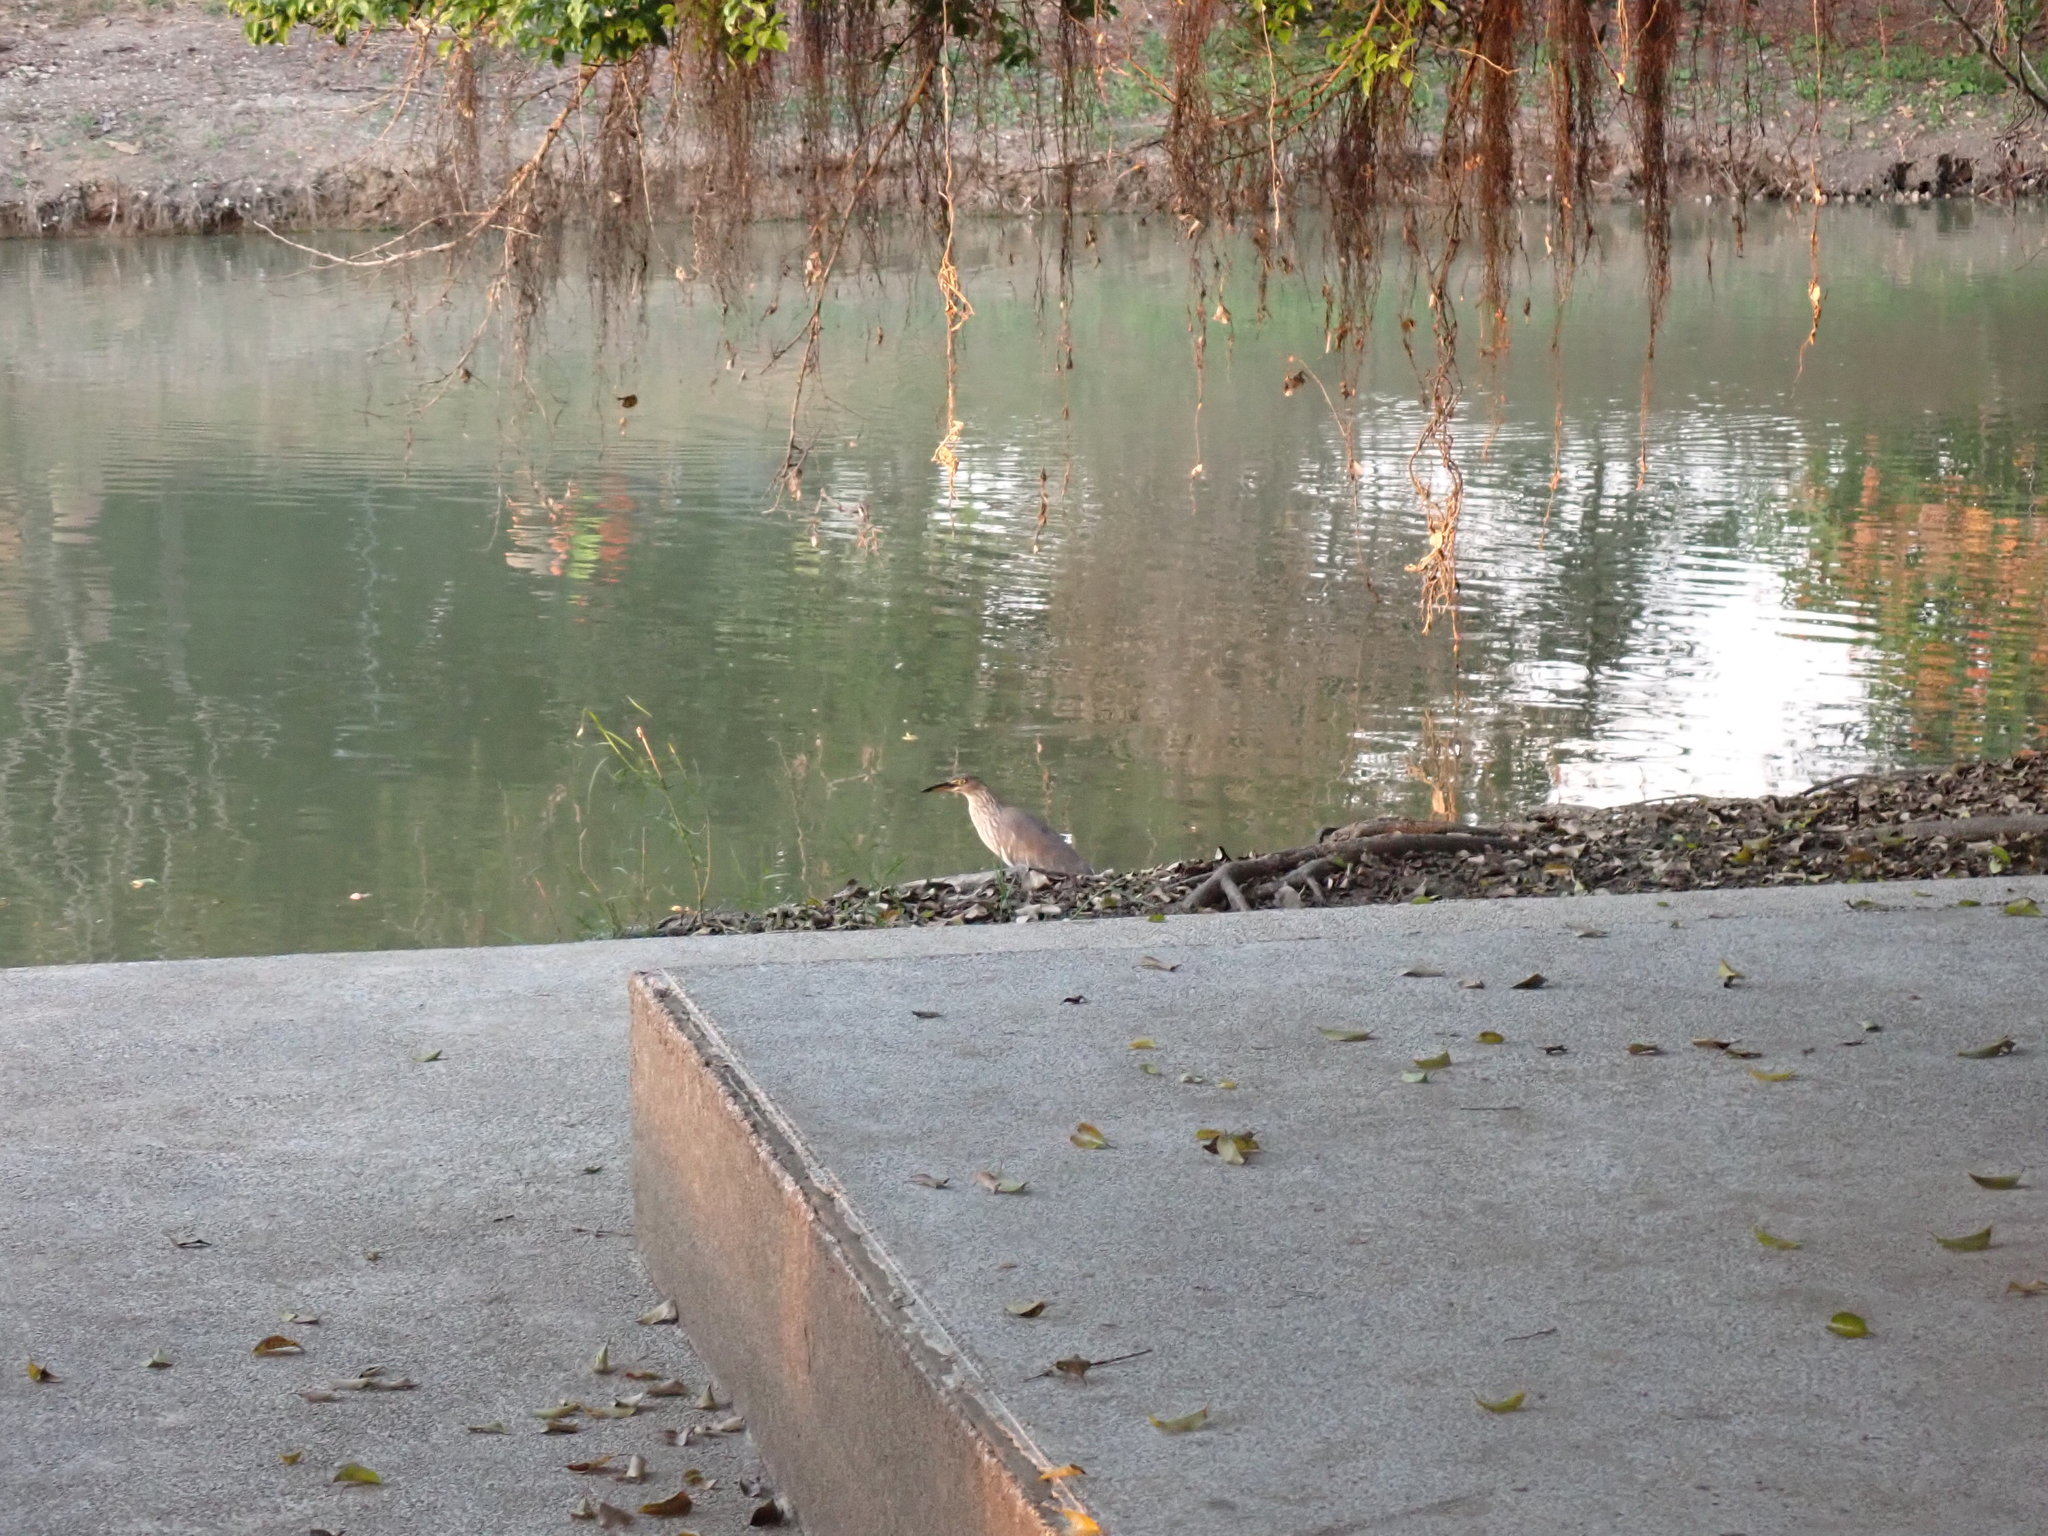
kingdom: Animalia
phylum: Chordata
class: Aves
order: Pelecaniformes
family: Ardeidae
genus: Ardeola
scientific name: Ardeola
